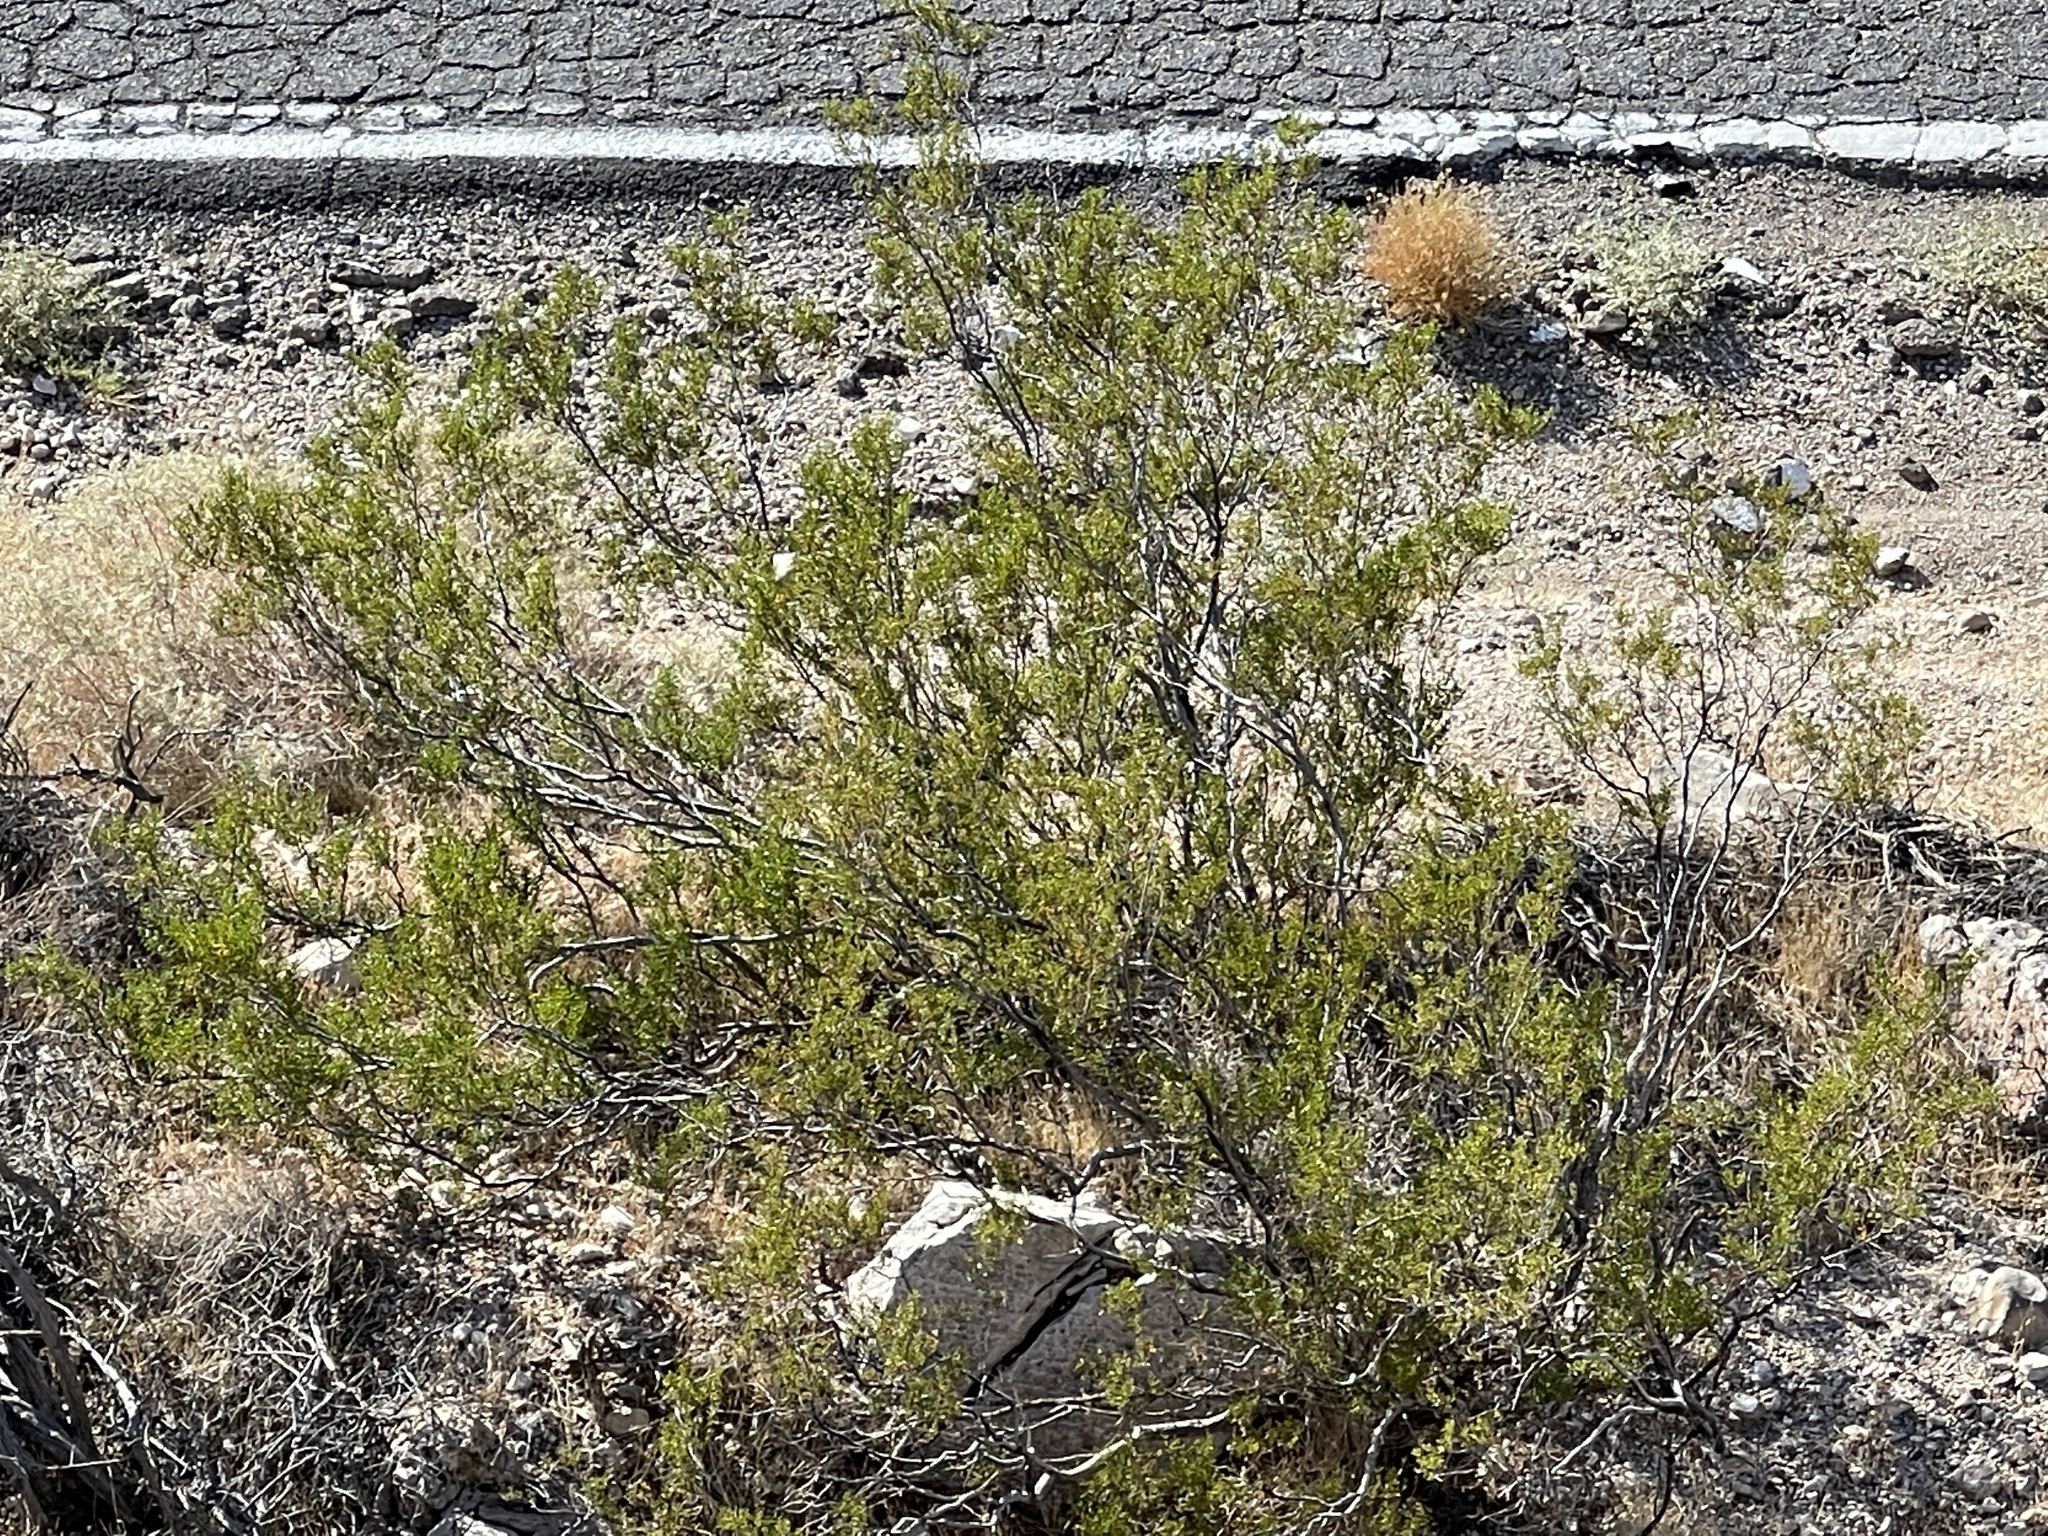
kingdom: Plantae
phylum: Tracheophyta
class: Magnoliopsida
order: Zygophyllales
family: Zygophyllaceae
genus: Larrea
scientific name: Larrea tridentata
